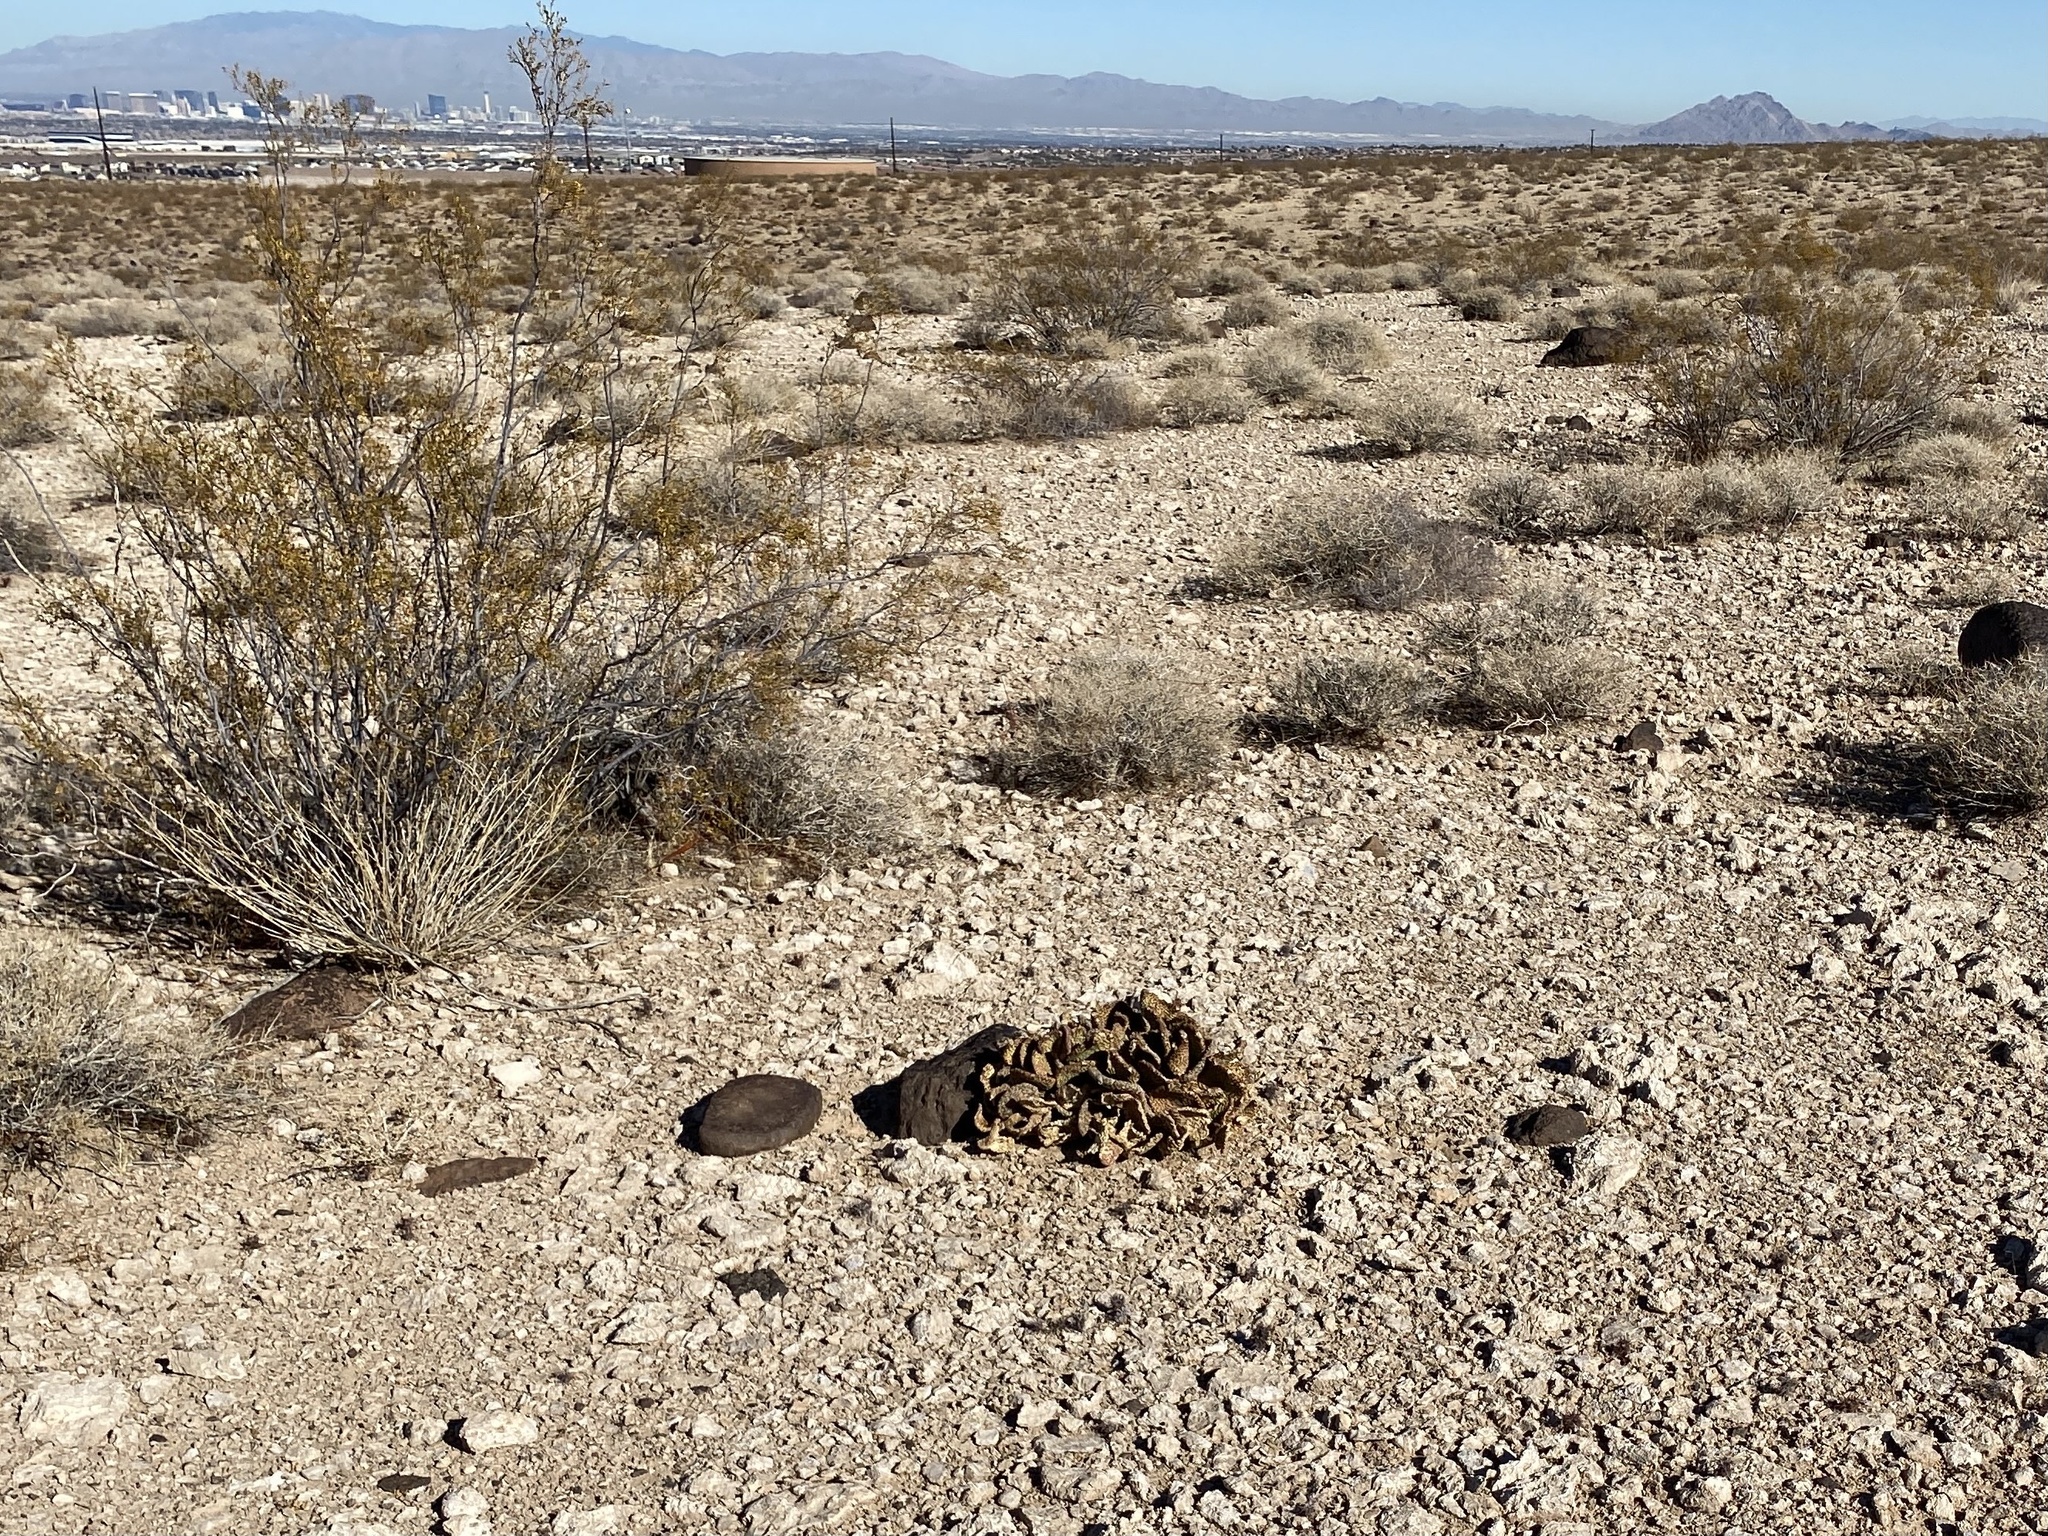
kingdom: Plantae
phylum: Tracheophyta
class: Magnoliopsida
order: Caryophyllales
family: Cactaceae
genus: Opuntia
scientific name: Opuntia basilaris
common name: Beavertail prickly-pear
